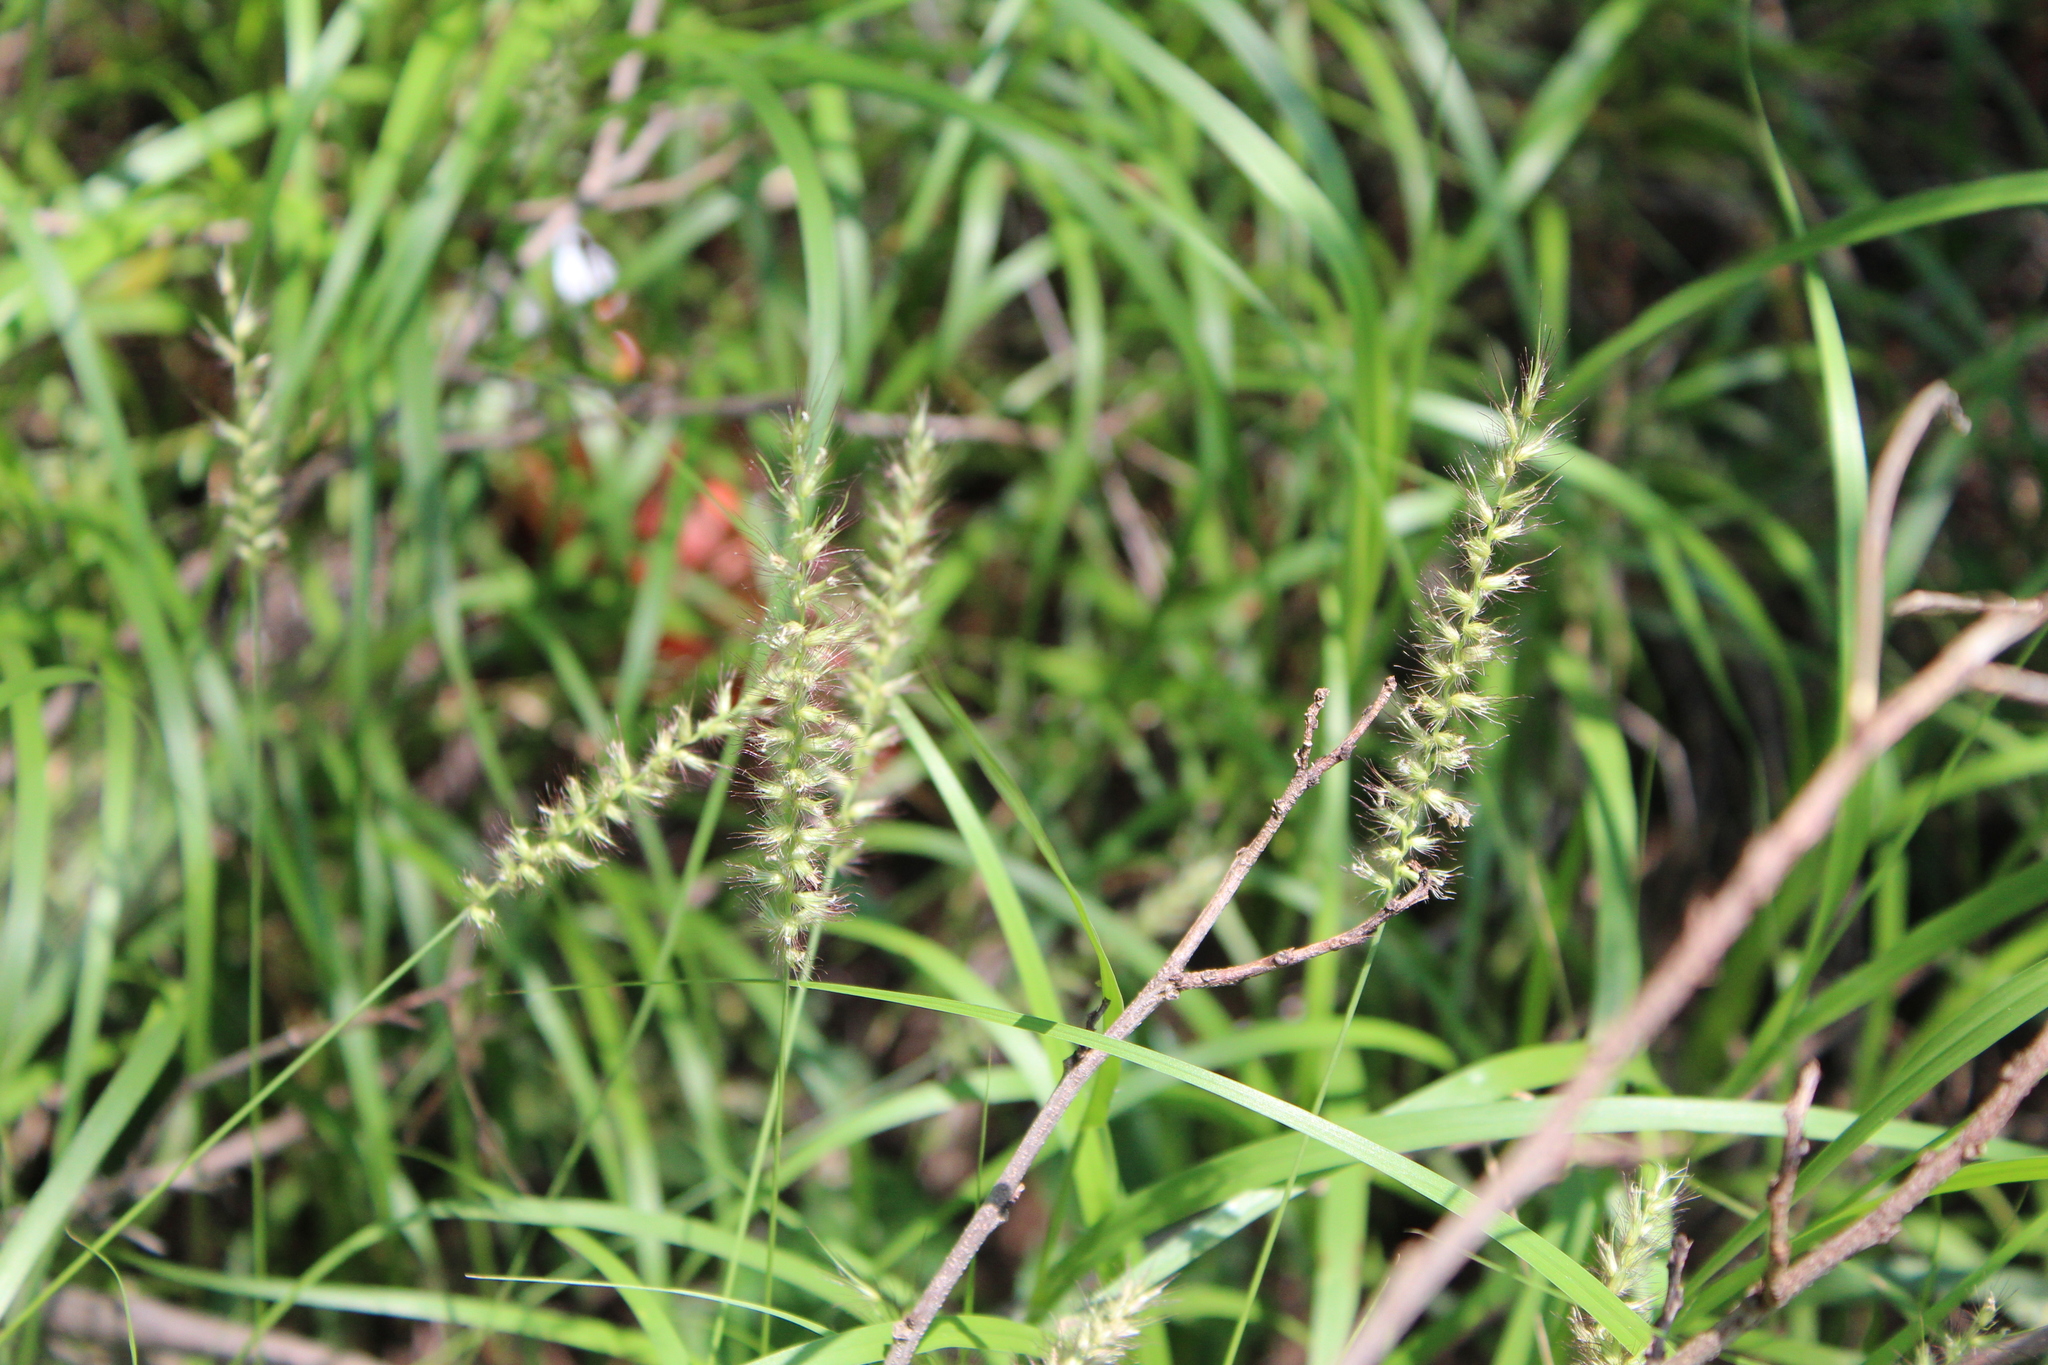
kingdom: Plantae
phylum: Tracheophyta
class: Liliopsida
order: Poales
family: Poaceae
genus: Cenchrus
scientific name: Cenchrus ciliaris
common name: Buffelgrass
